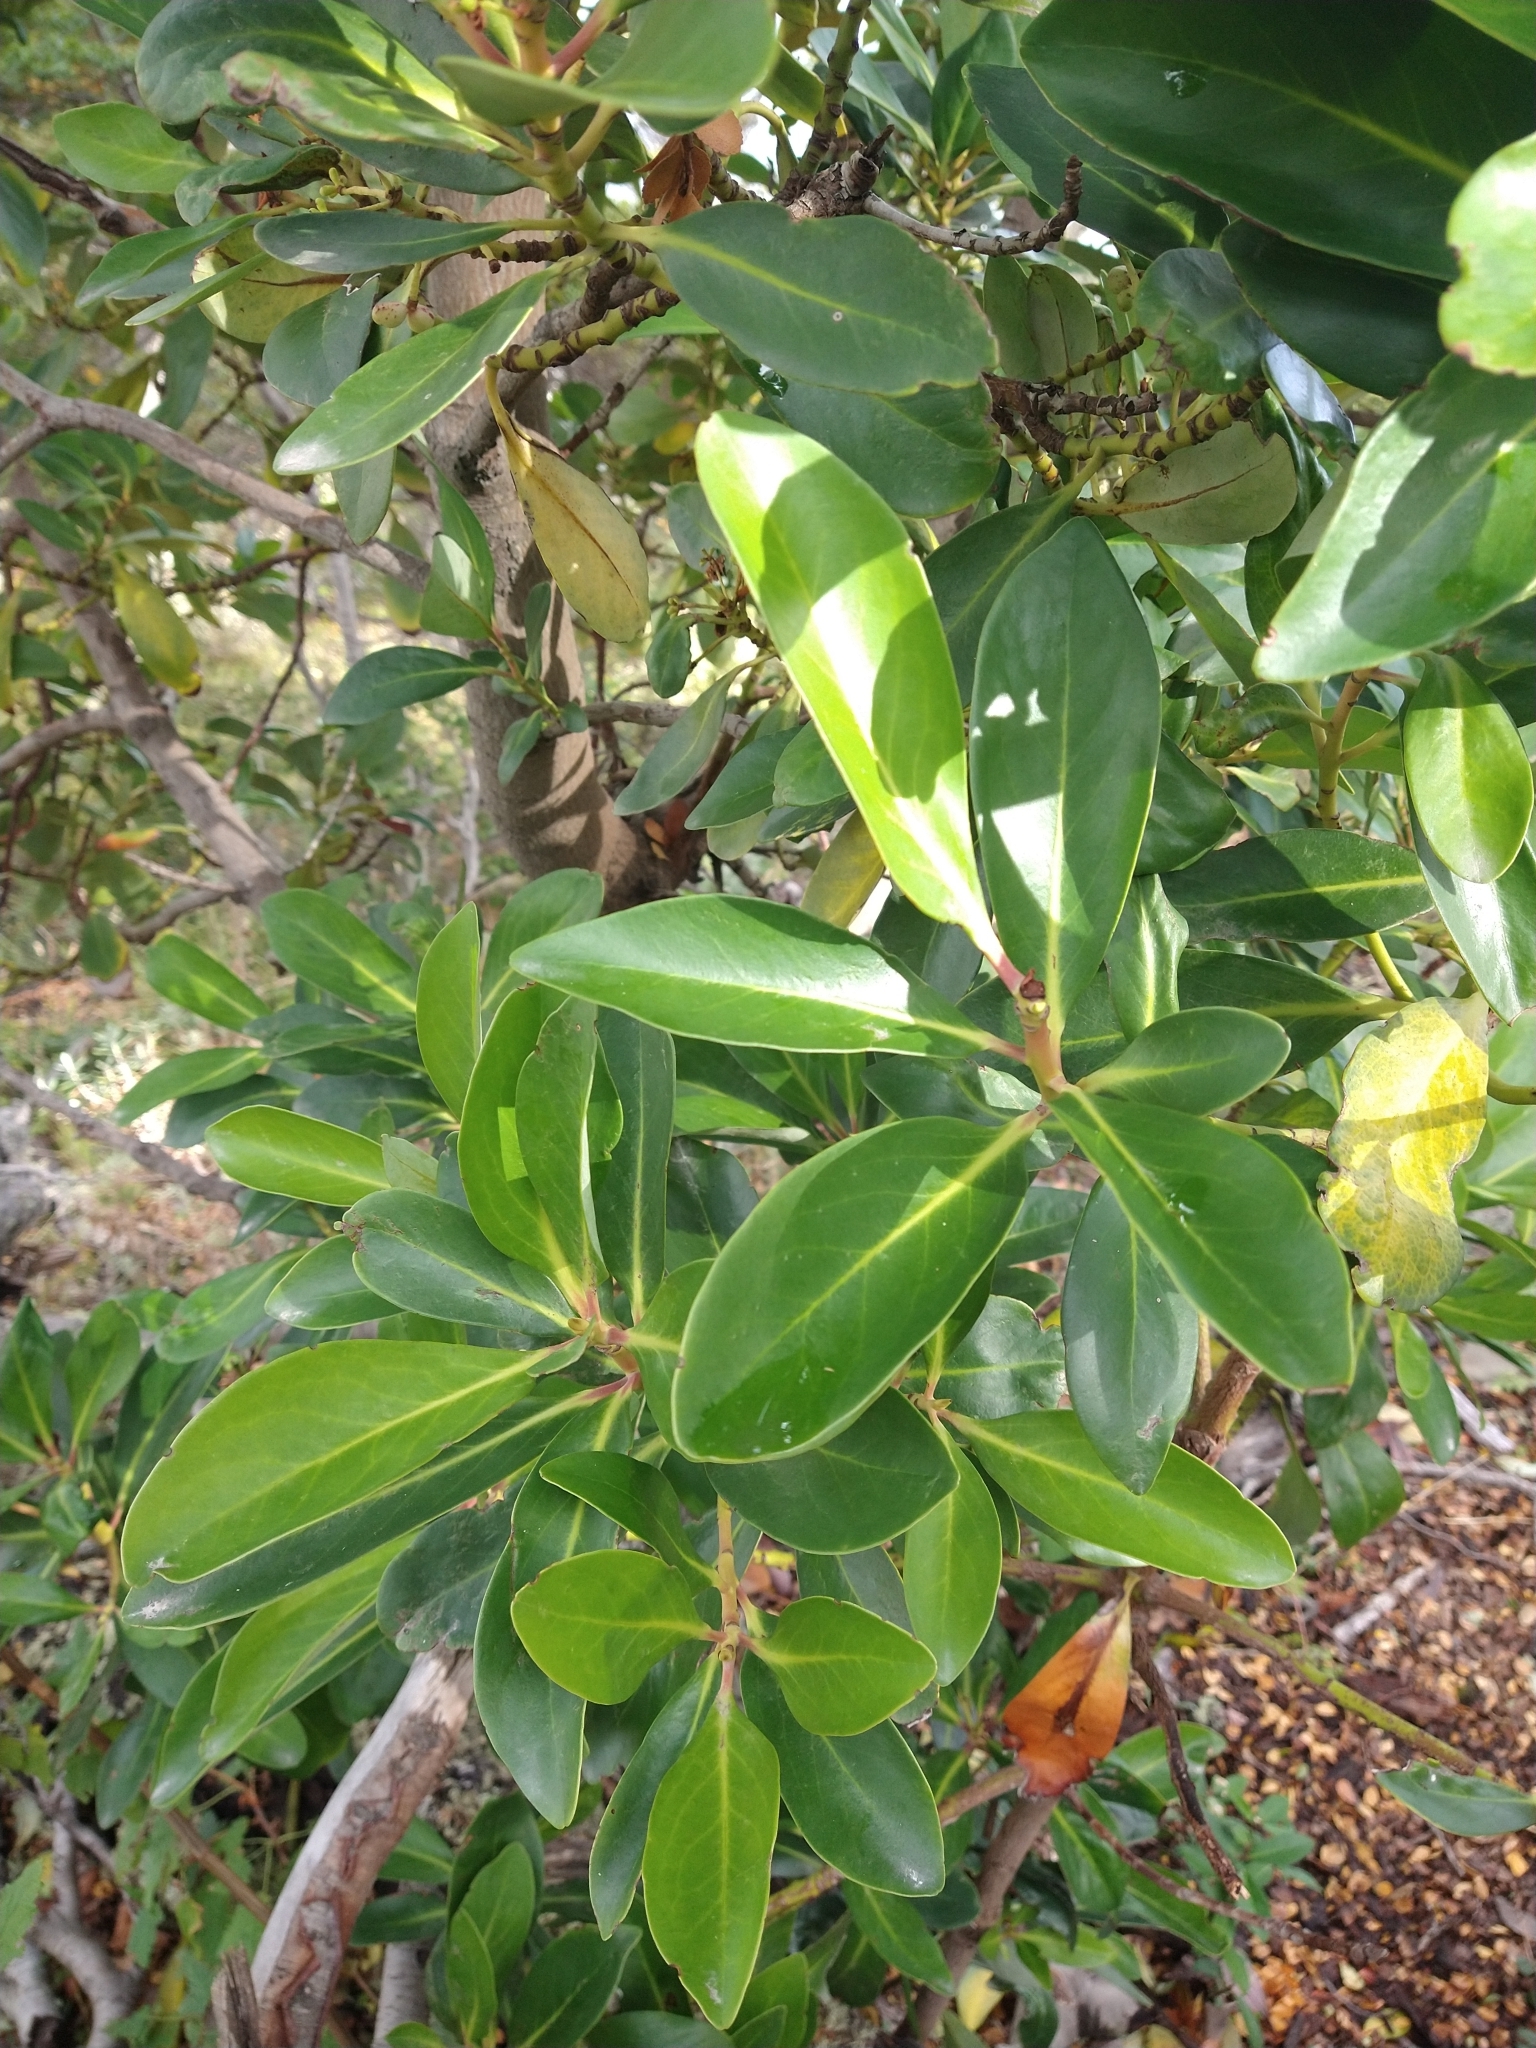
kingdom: Plantae
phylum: Tracheophyta
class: Magnoliopsida
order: Canellales
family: Winteraceae
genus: Drimys
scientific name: Drimys winteri
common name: Winter's-bark
